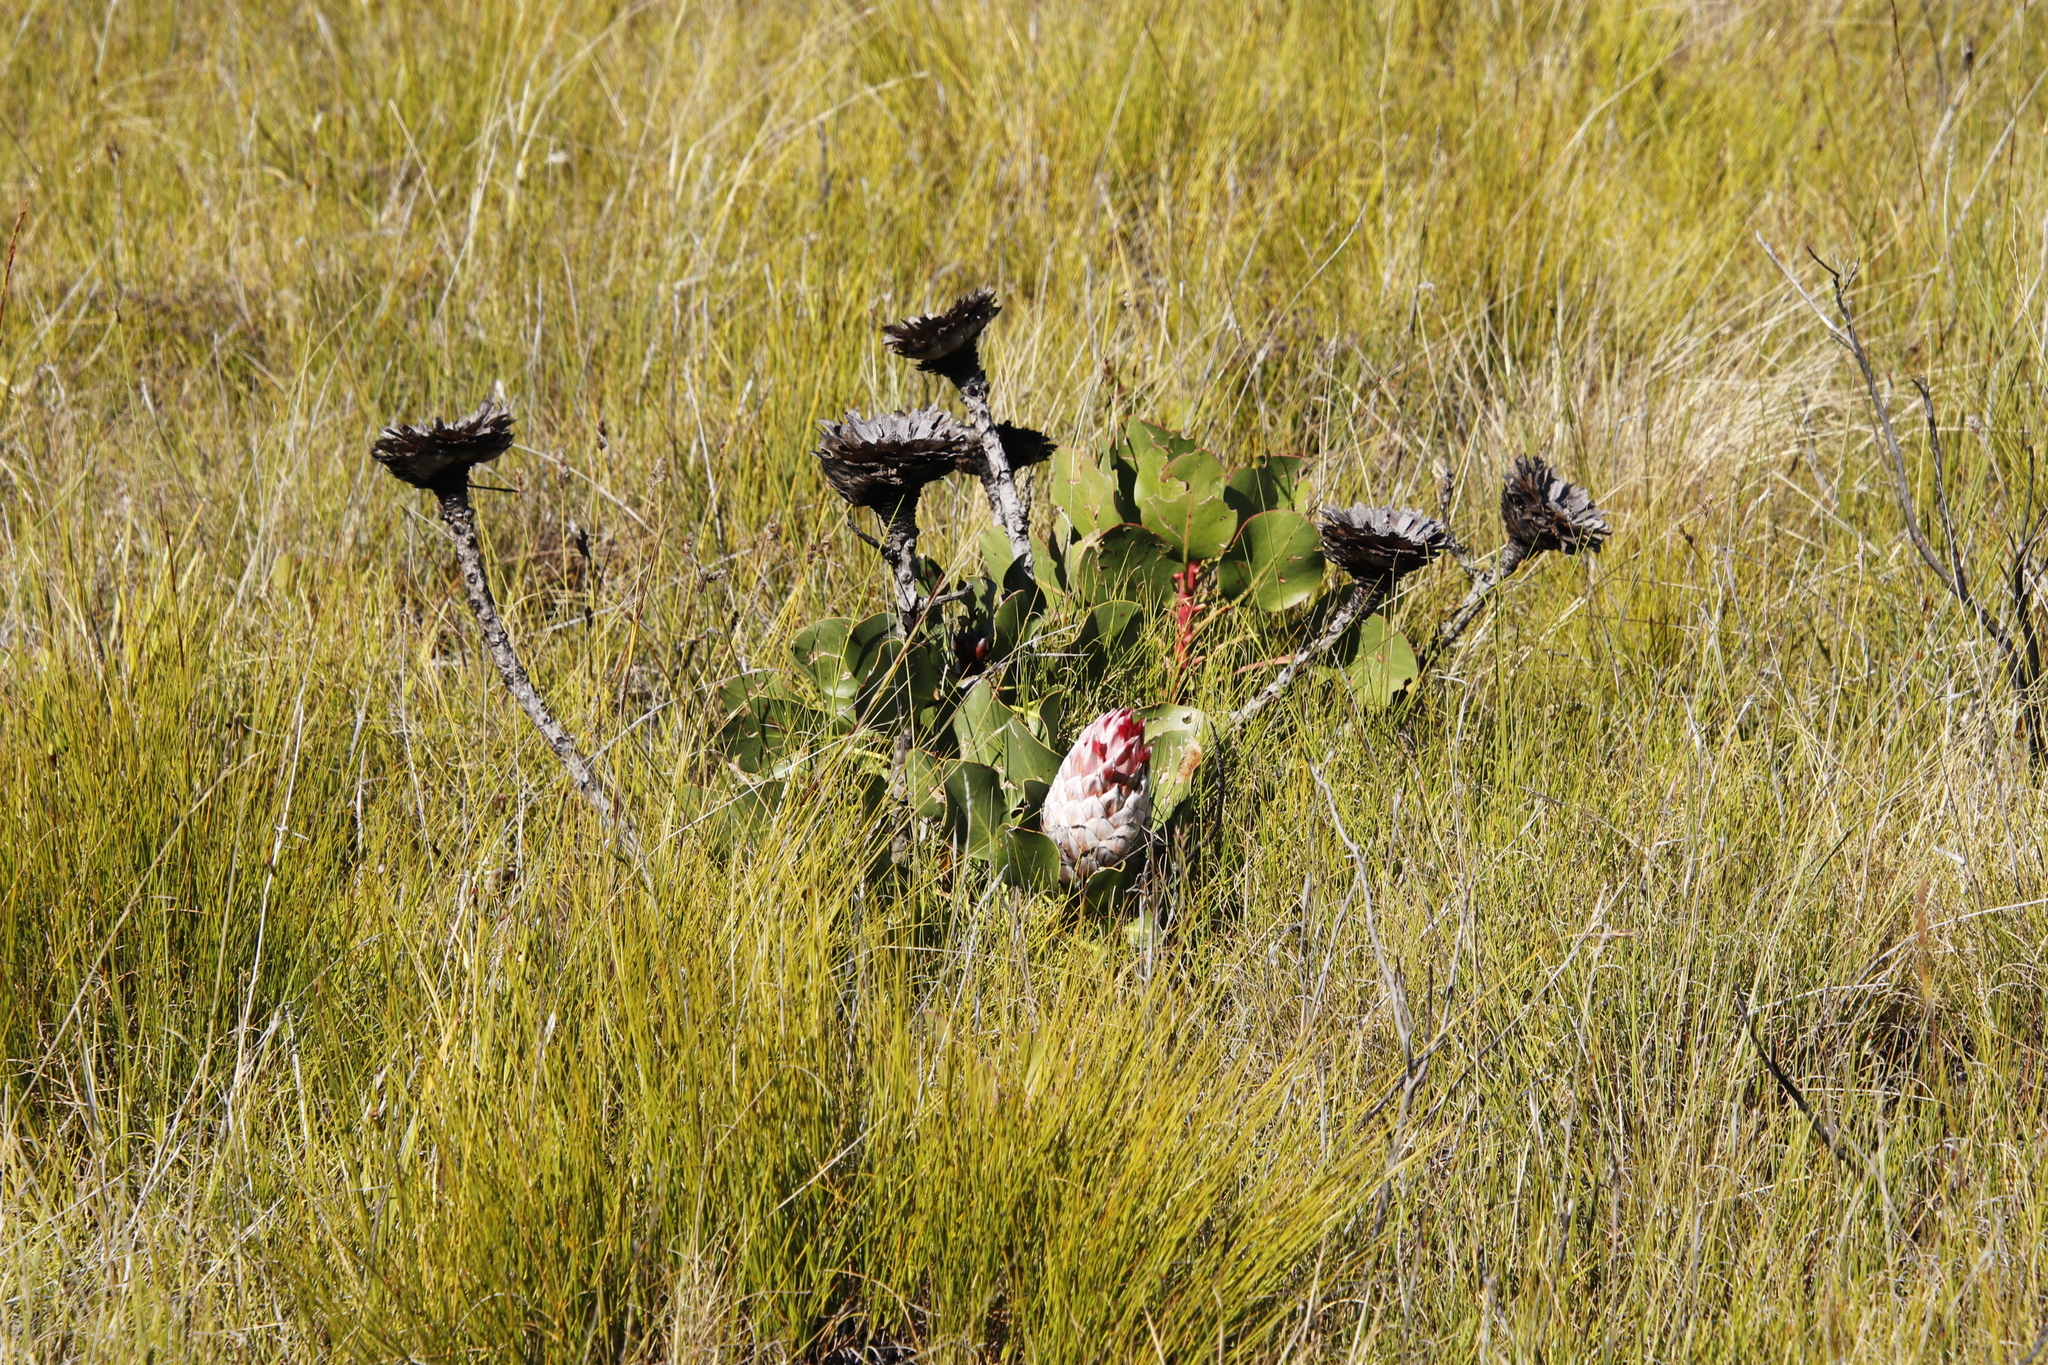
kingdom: Plantae
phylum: Tracheophyta
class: Magnoliopsida
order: Proteales
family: Proteaceae
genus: Protea
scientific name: Protea cynaroides
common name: King protea
